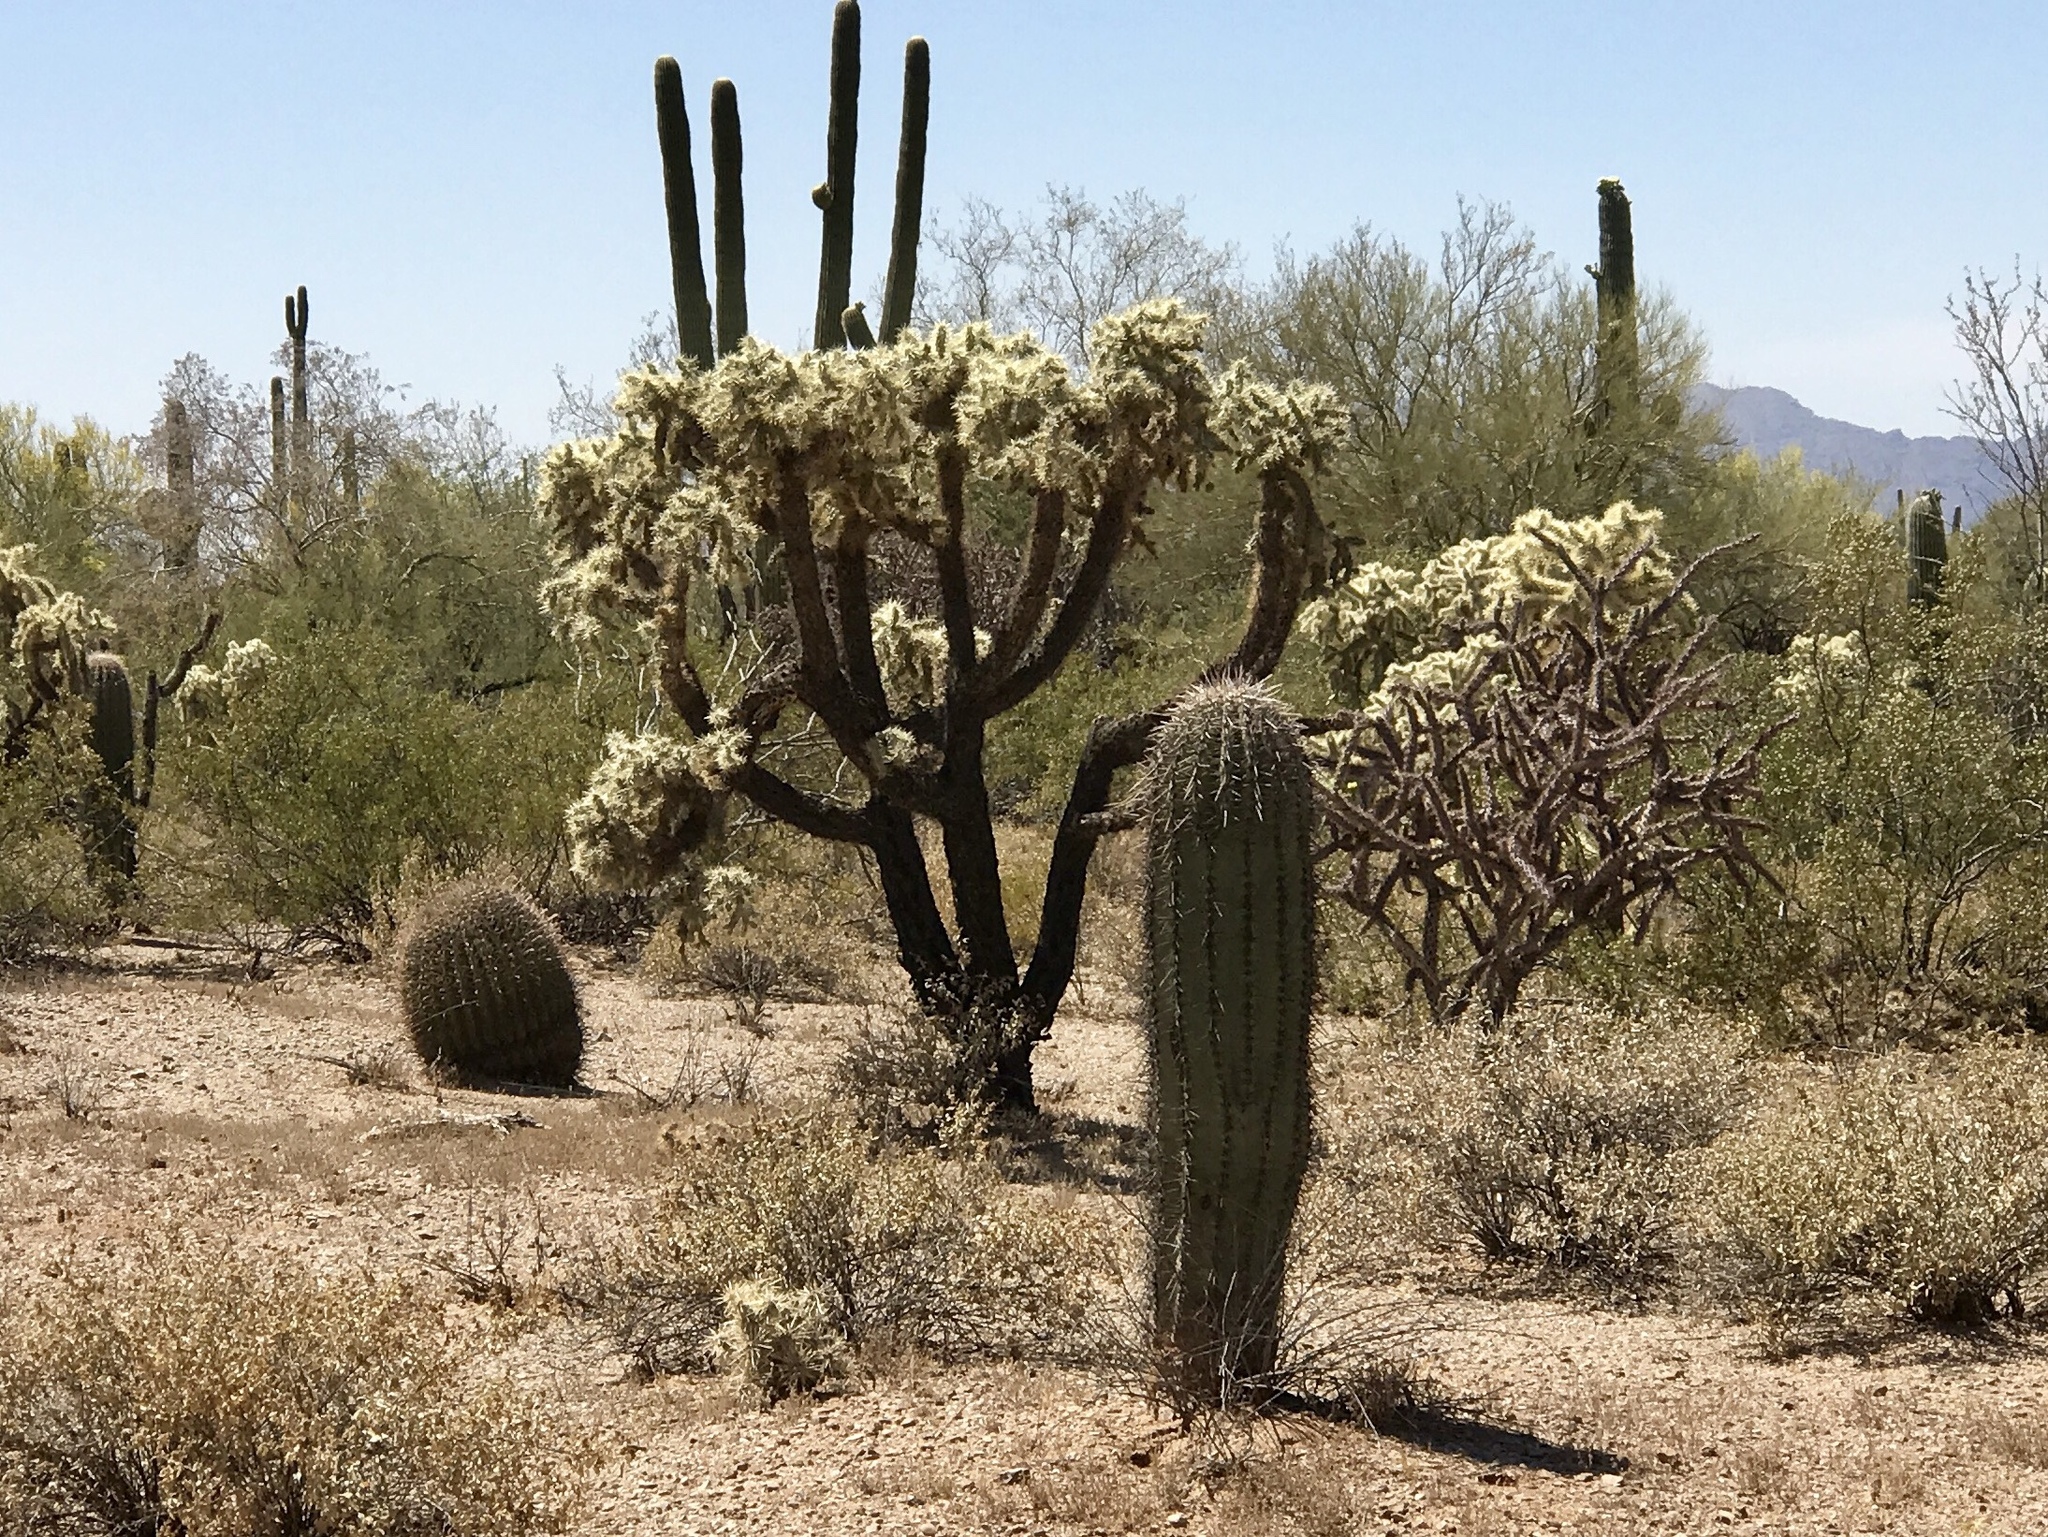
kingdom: Plantae
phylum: Tracheophyta
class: Magnoliopsida
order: Caryophyllales
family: Cactaceae
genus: Carnegiea
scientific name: Carnegiea gigantea
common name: Saguaro
